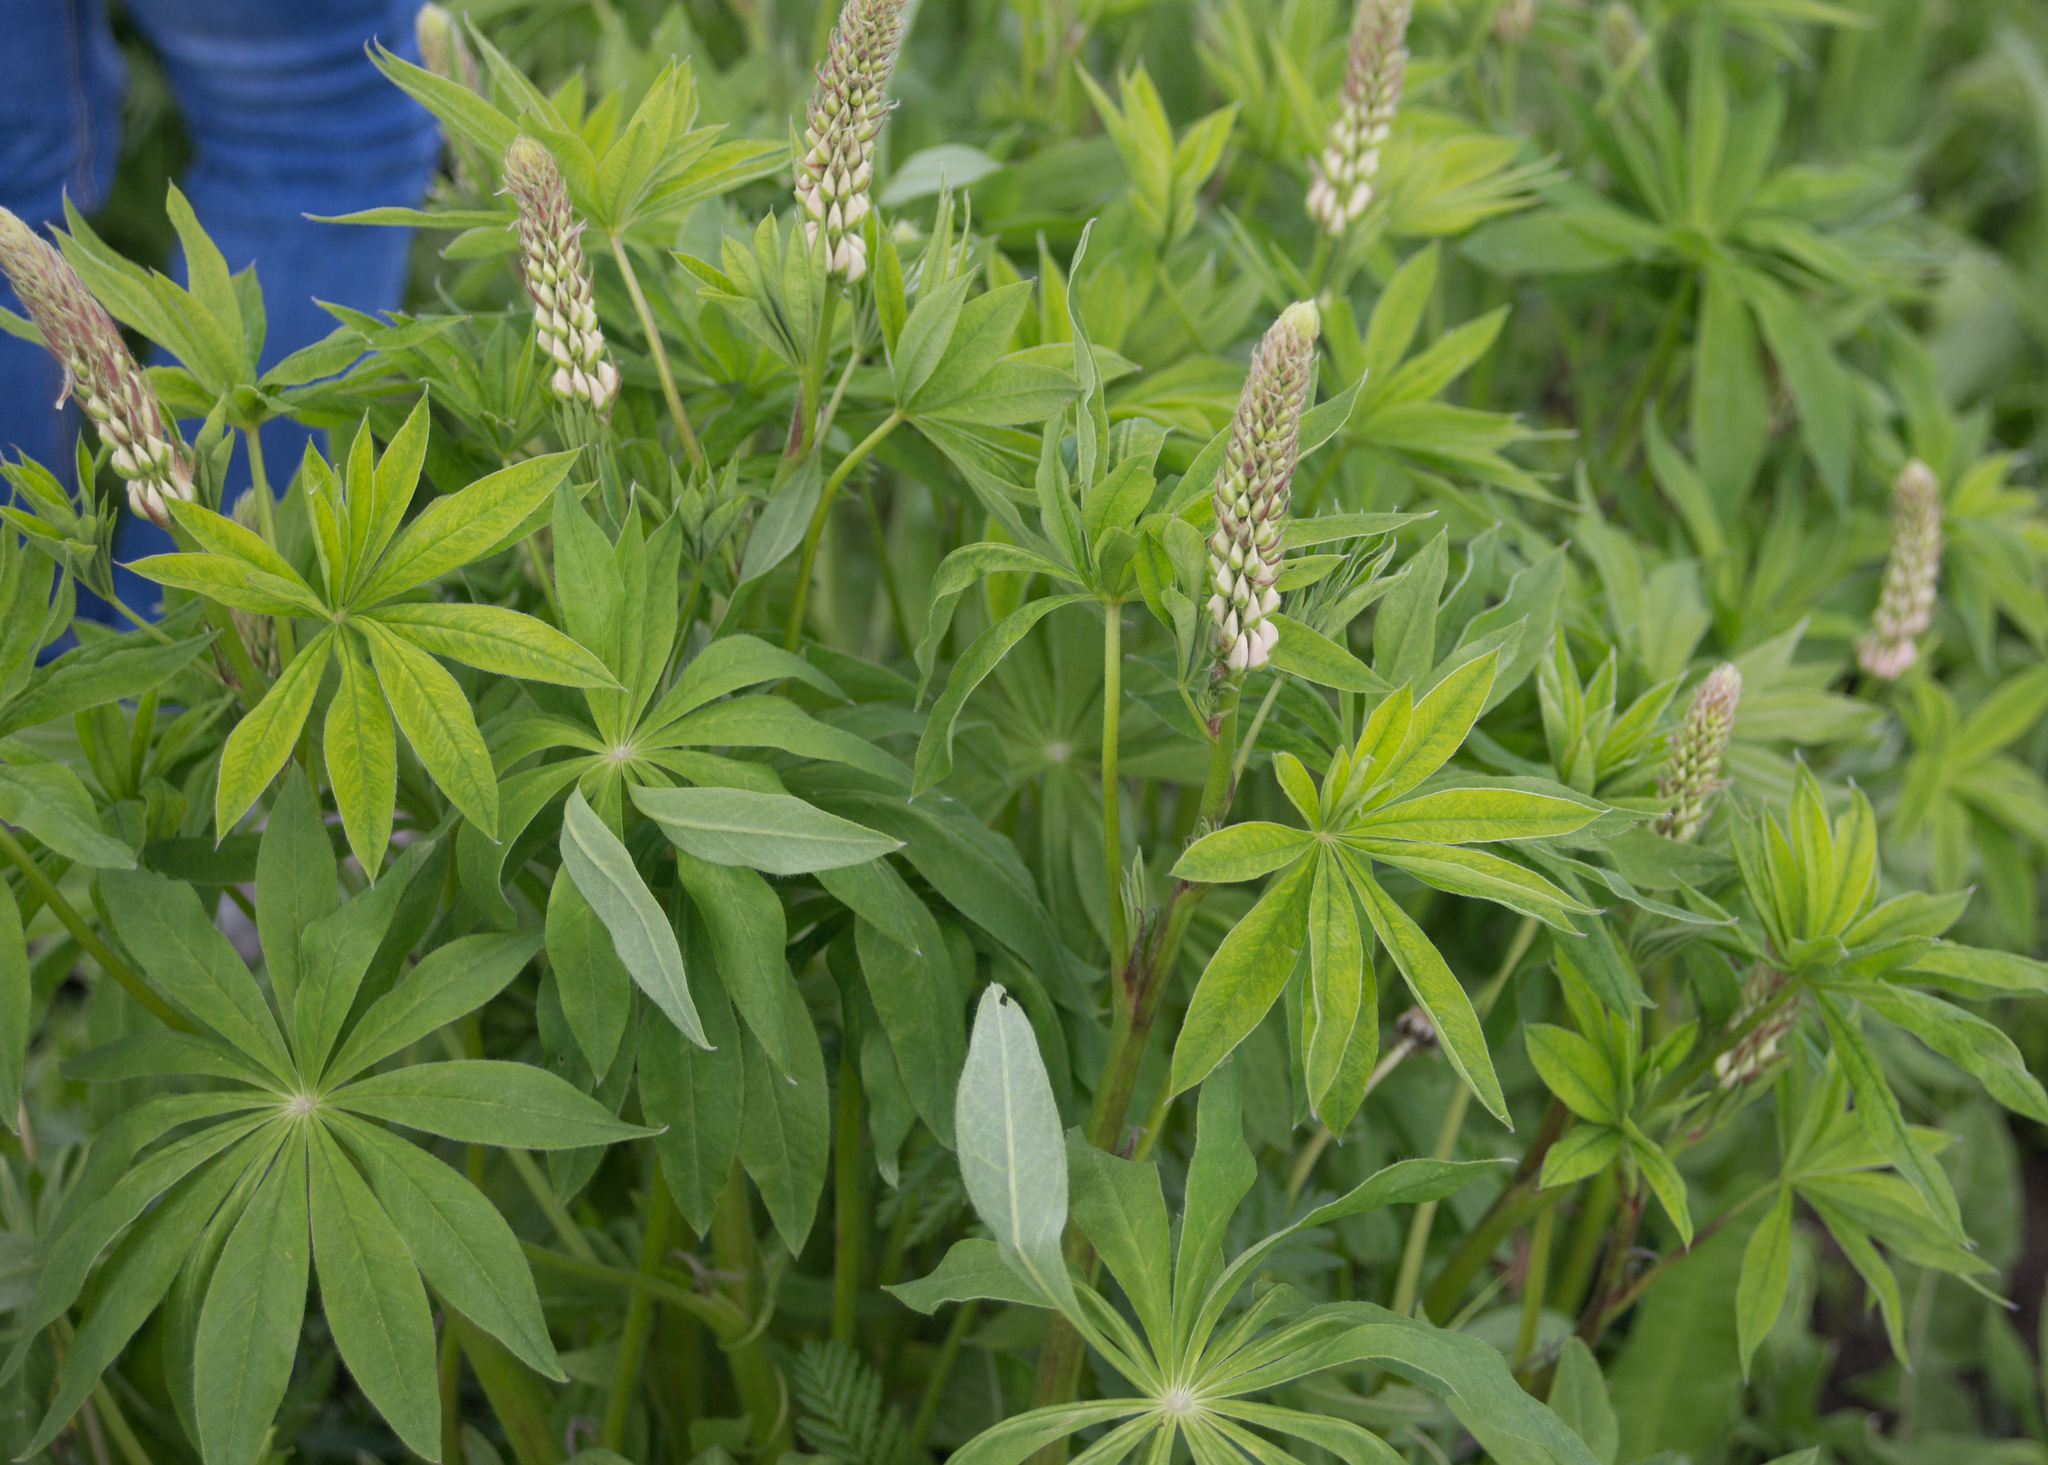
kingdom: Plantae
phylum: Tracheophyta
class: Magnoliopsida
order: Fabales
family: Fabaceae
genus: Lupinus
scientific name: Lupinus polyphyllus
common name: Garden lupin
